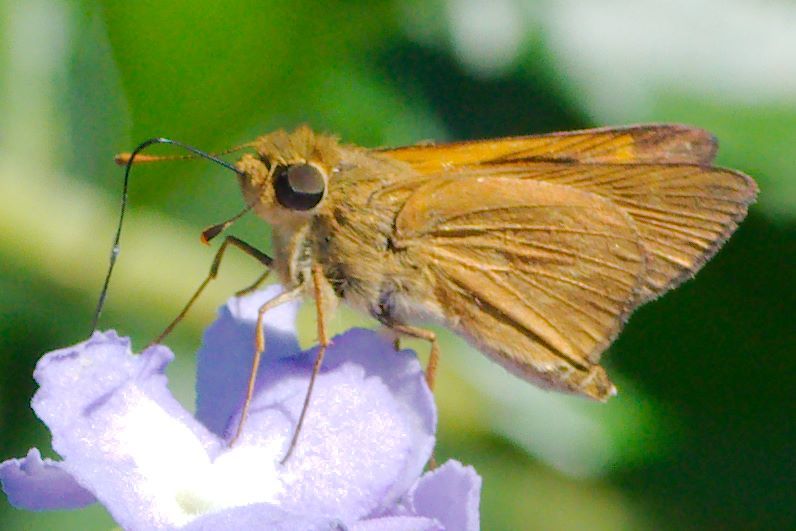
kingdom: Animalia
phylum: Arthropoda
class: Insecta
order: Lepidoptera
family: Hesperiidae
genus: Mellana
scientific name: Mellana eulogius
